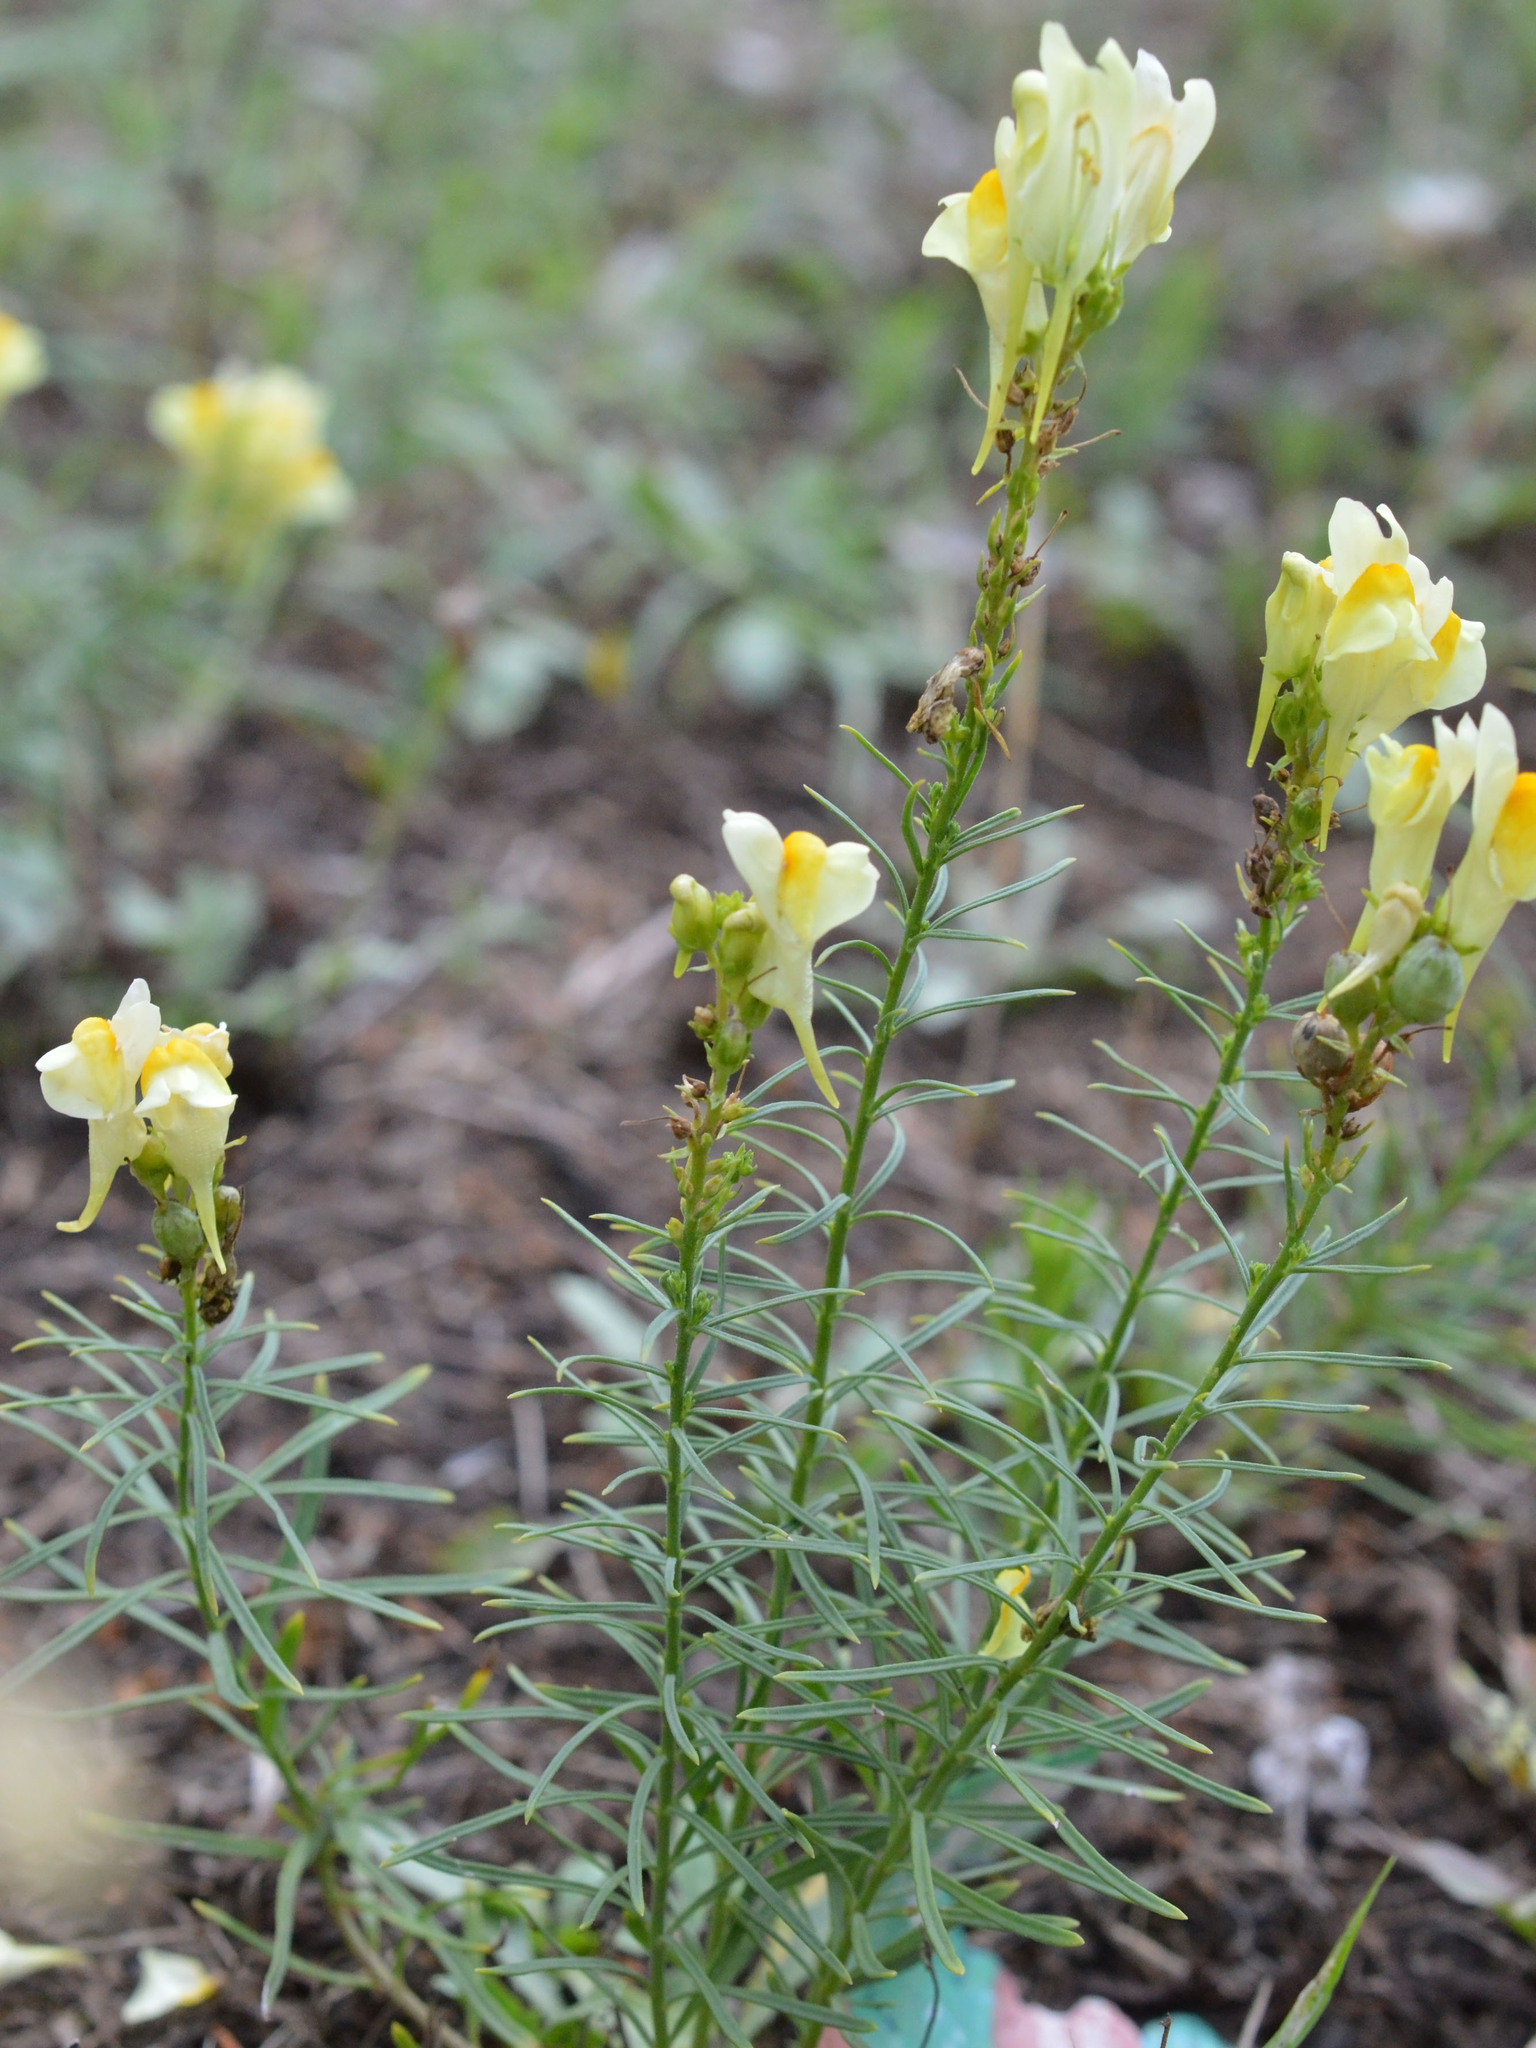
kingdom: Plantae
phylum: Tracheophyta
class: Magnoliopsida
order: Lamiales
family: Plantaginaceae
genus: Linaria
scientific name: Linaria vulgaris
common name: Butter and eggs
